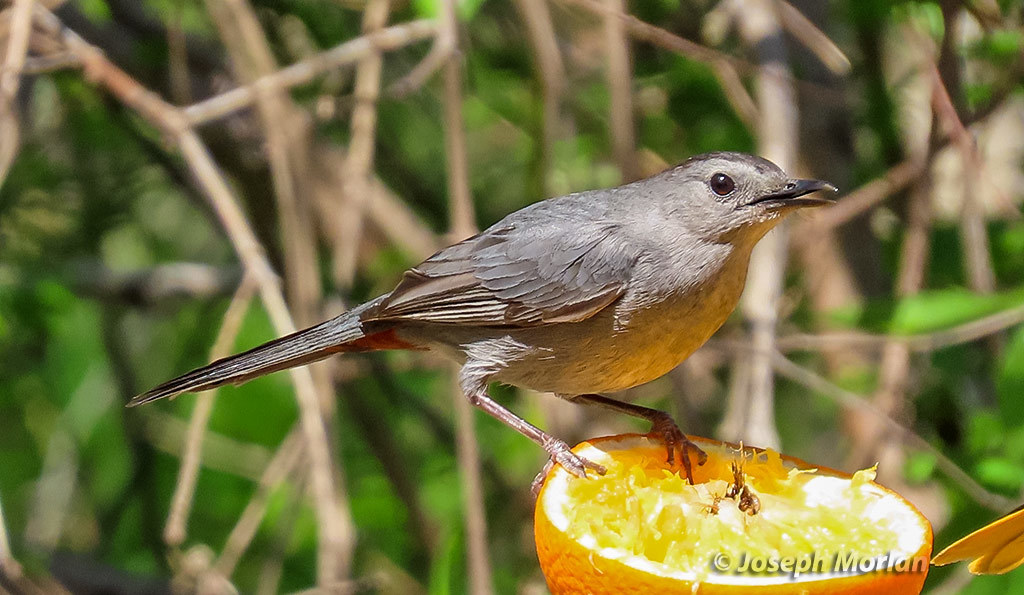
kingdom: Animalia
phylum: Chordata
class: Aves
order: Passeriformes
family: Mimidae
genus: Dumetella
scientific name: Dumetella carolinensis
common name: Gray catbird
